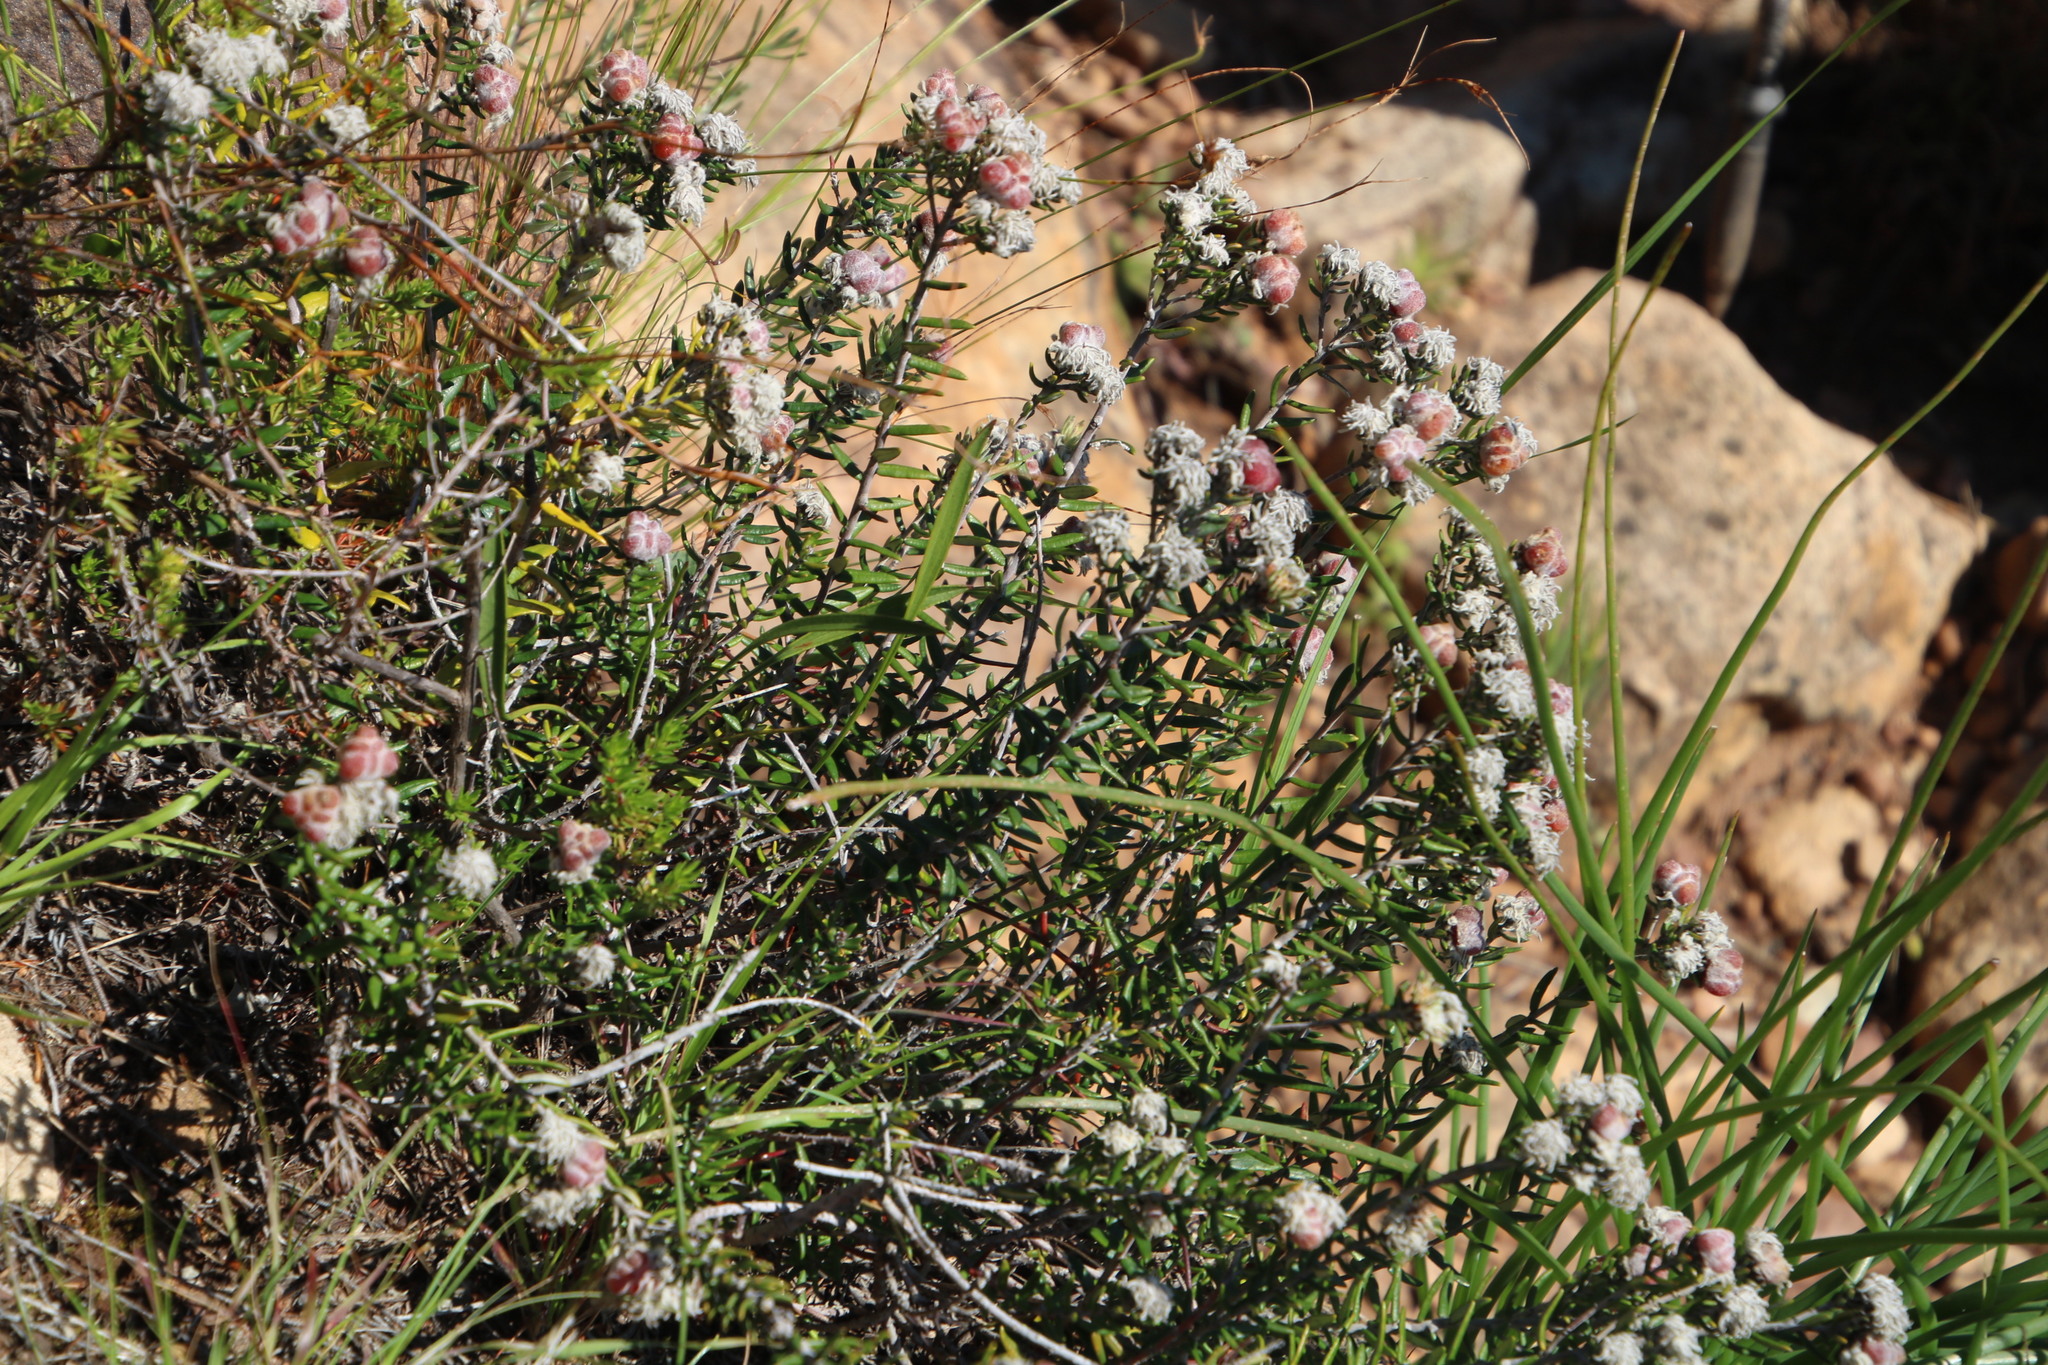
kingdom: Plantae
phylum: Tracheophyta
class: Magnoliopsida
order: Rosales
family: Rhamnaceae
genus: Trichocephalus
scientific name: Trichocephalus stipularis
